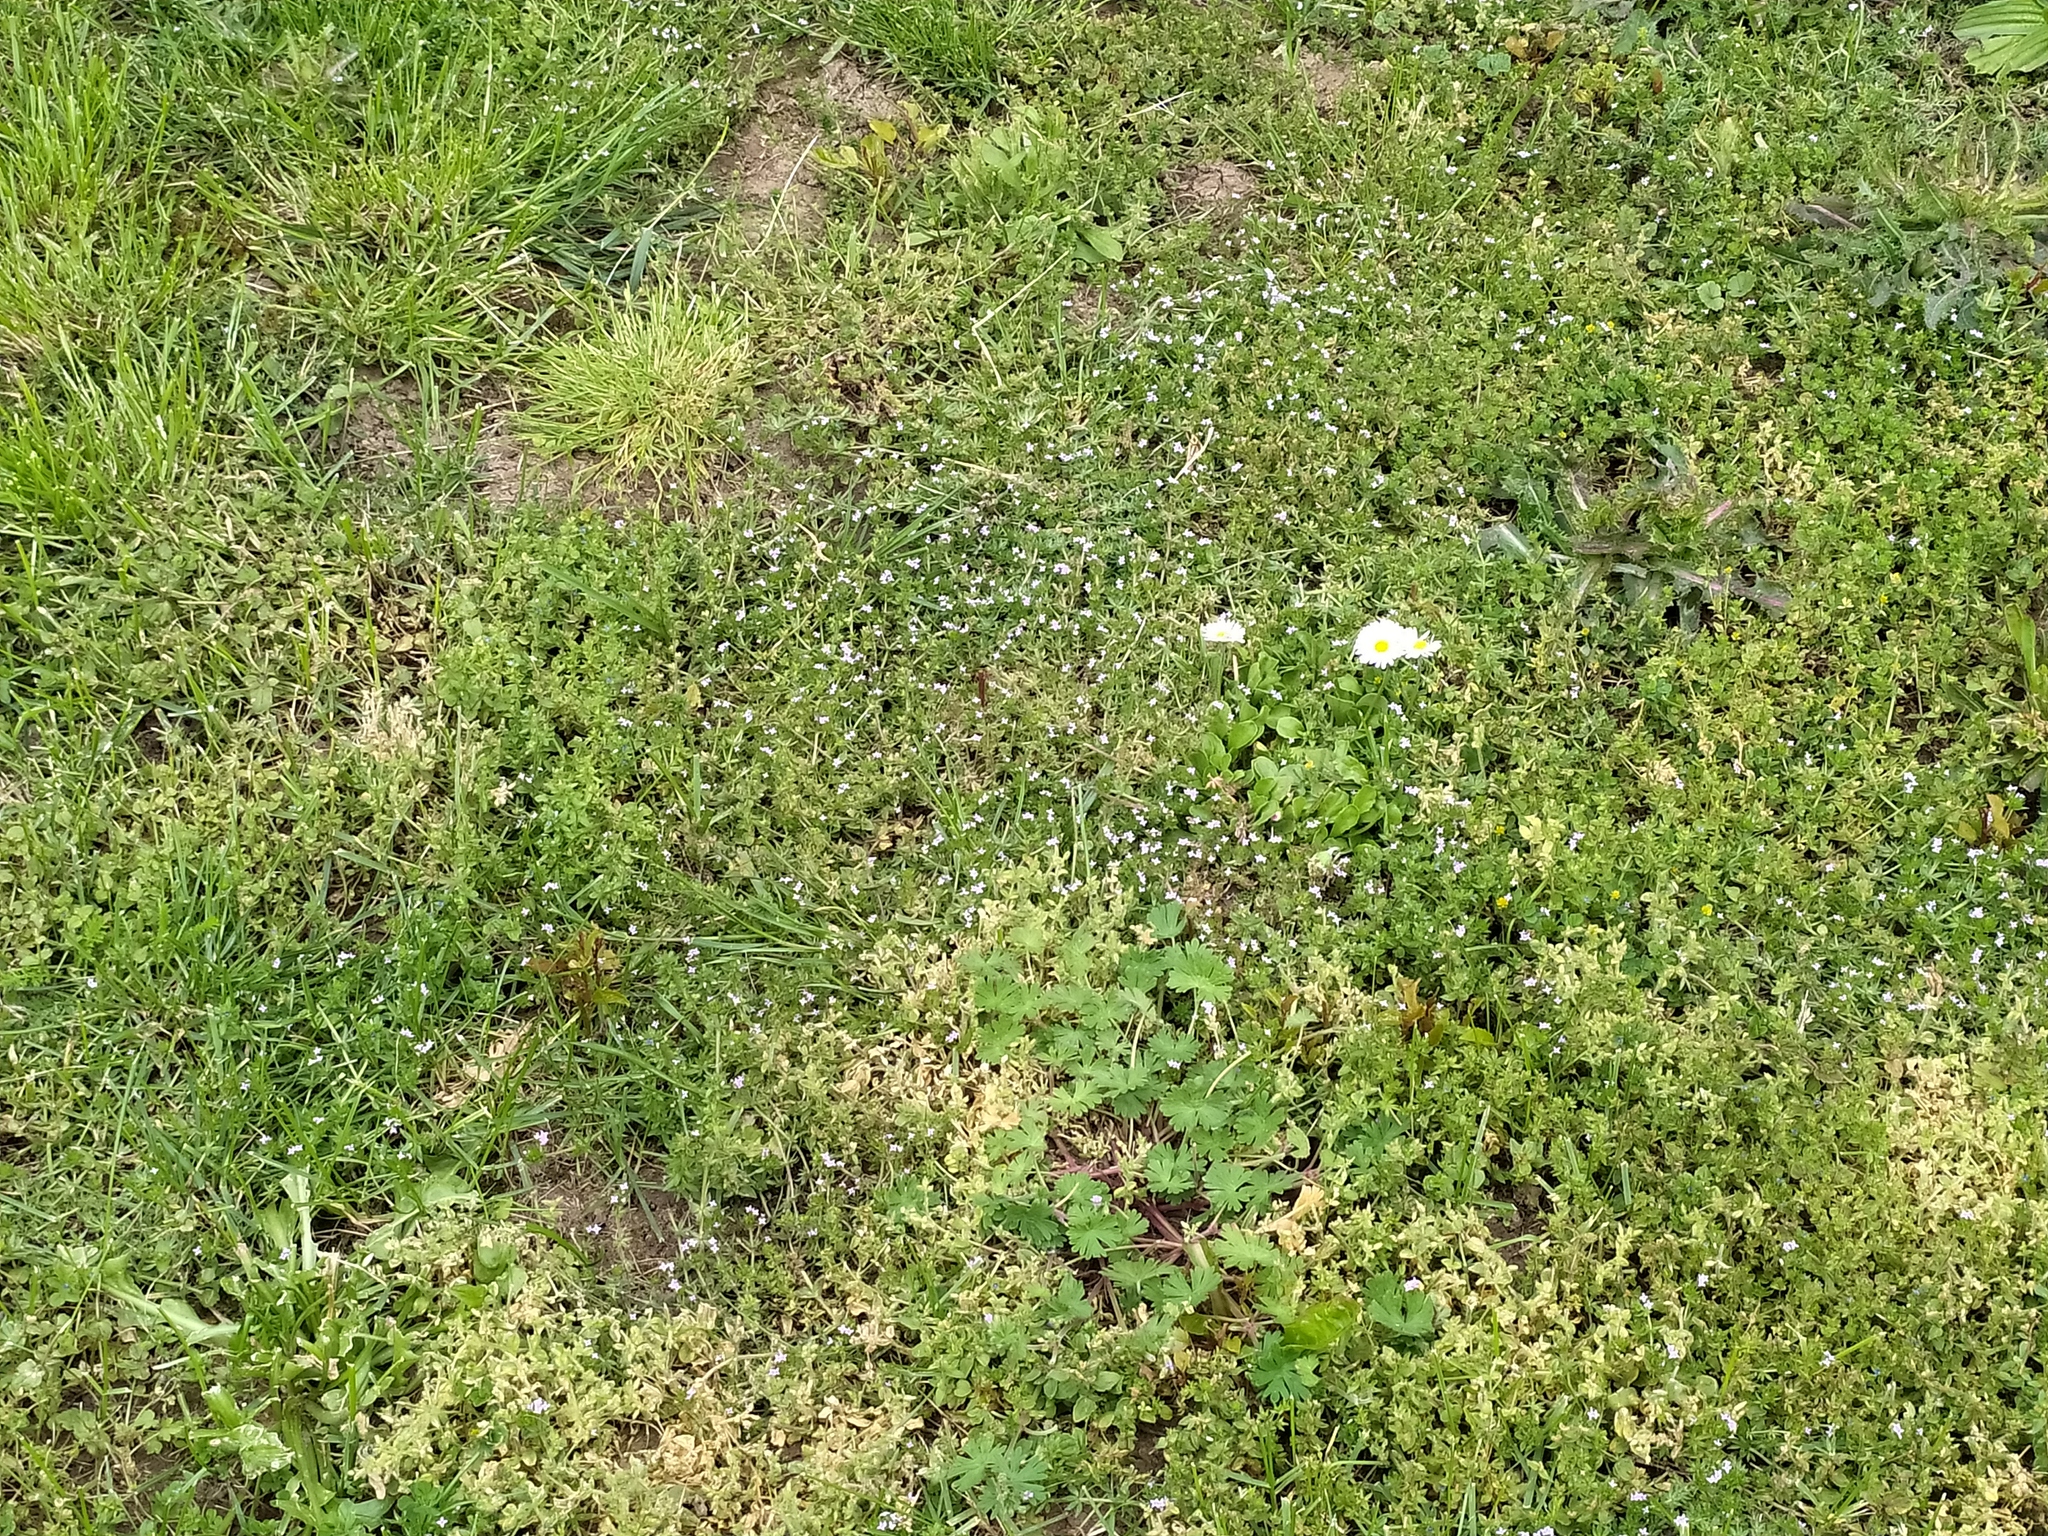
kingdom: Plantae
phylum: Tracheophyta
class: Magnoliopsida
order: Gentianales
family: Rubiaceae
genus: Sherardia
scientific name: Sherardia arvensis
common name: Field madder
